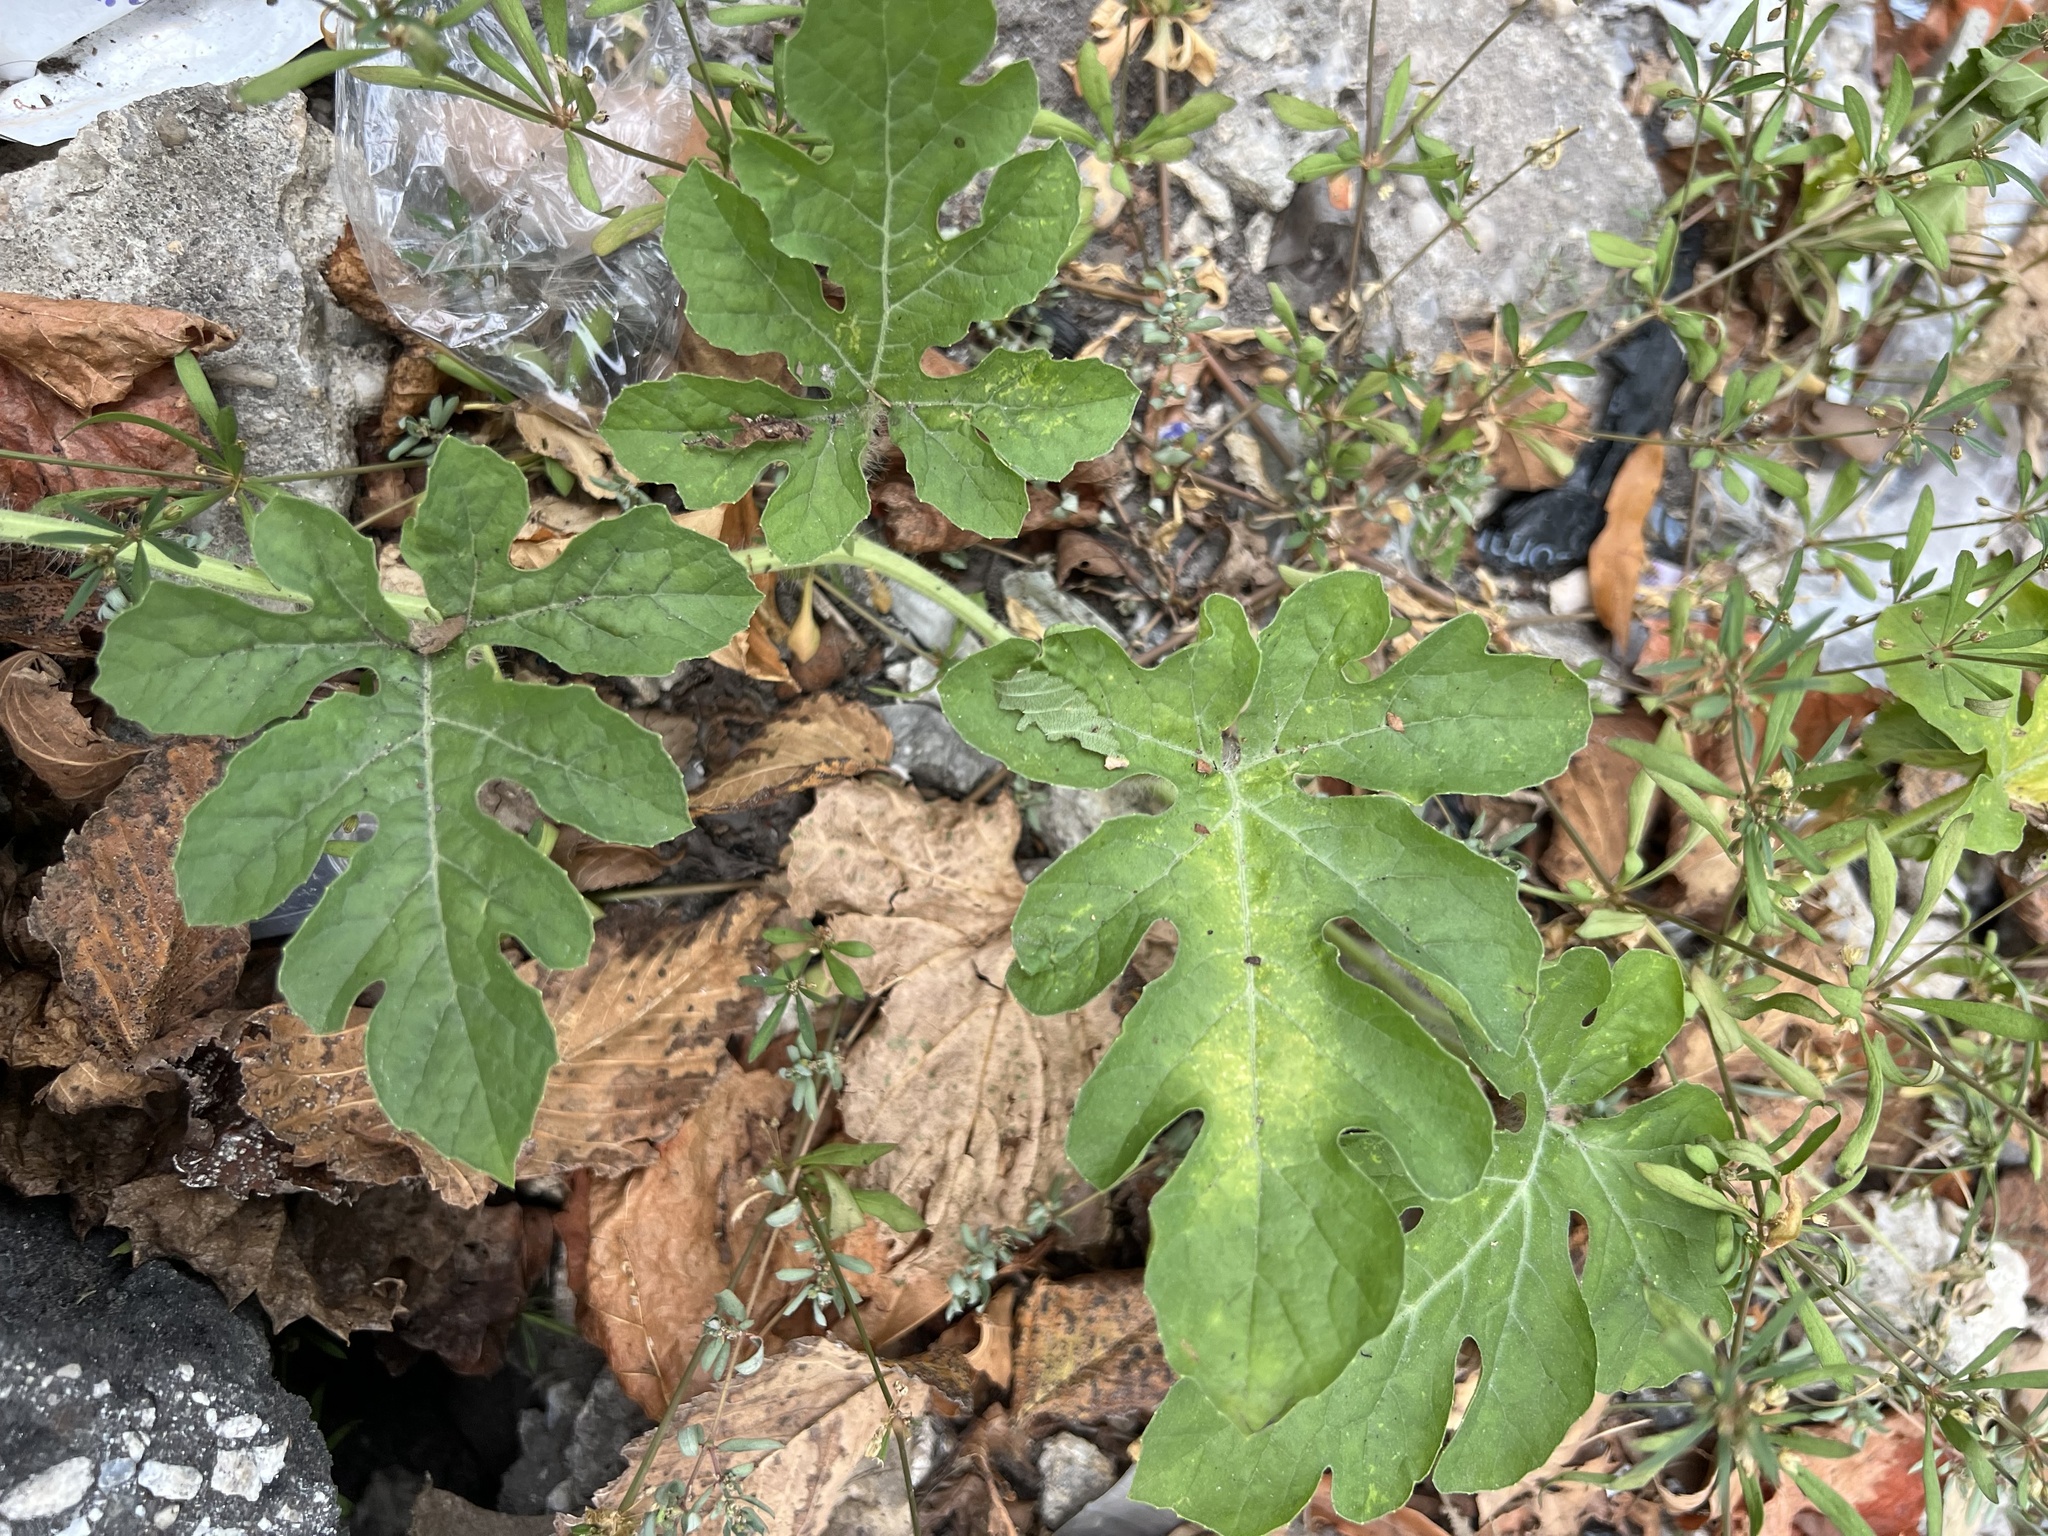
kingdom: Plantae
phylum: Tracheophyta
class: Magnoliopsida
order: Cucurbitales
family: Cucurbitaceae
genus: Citrullus
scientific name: Citrullus lanatus
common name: Watermelon
